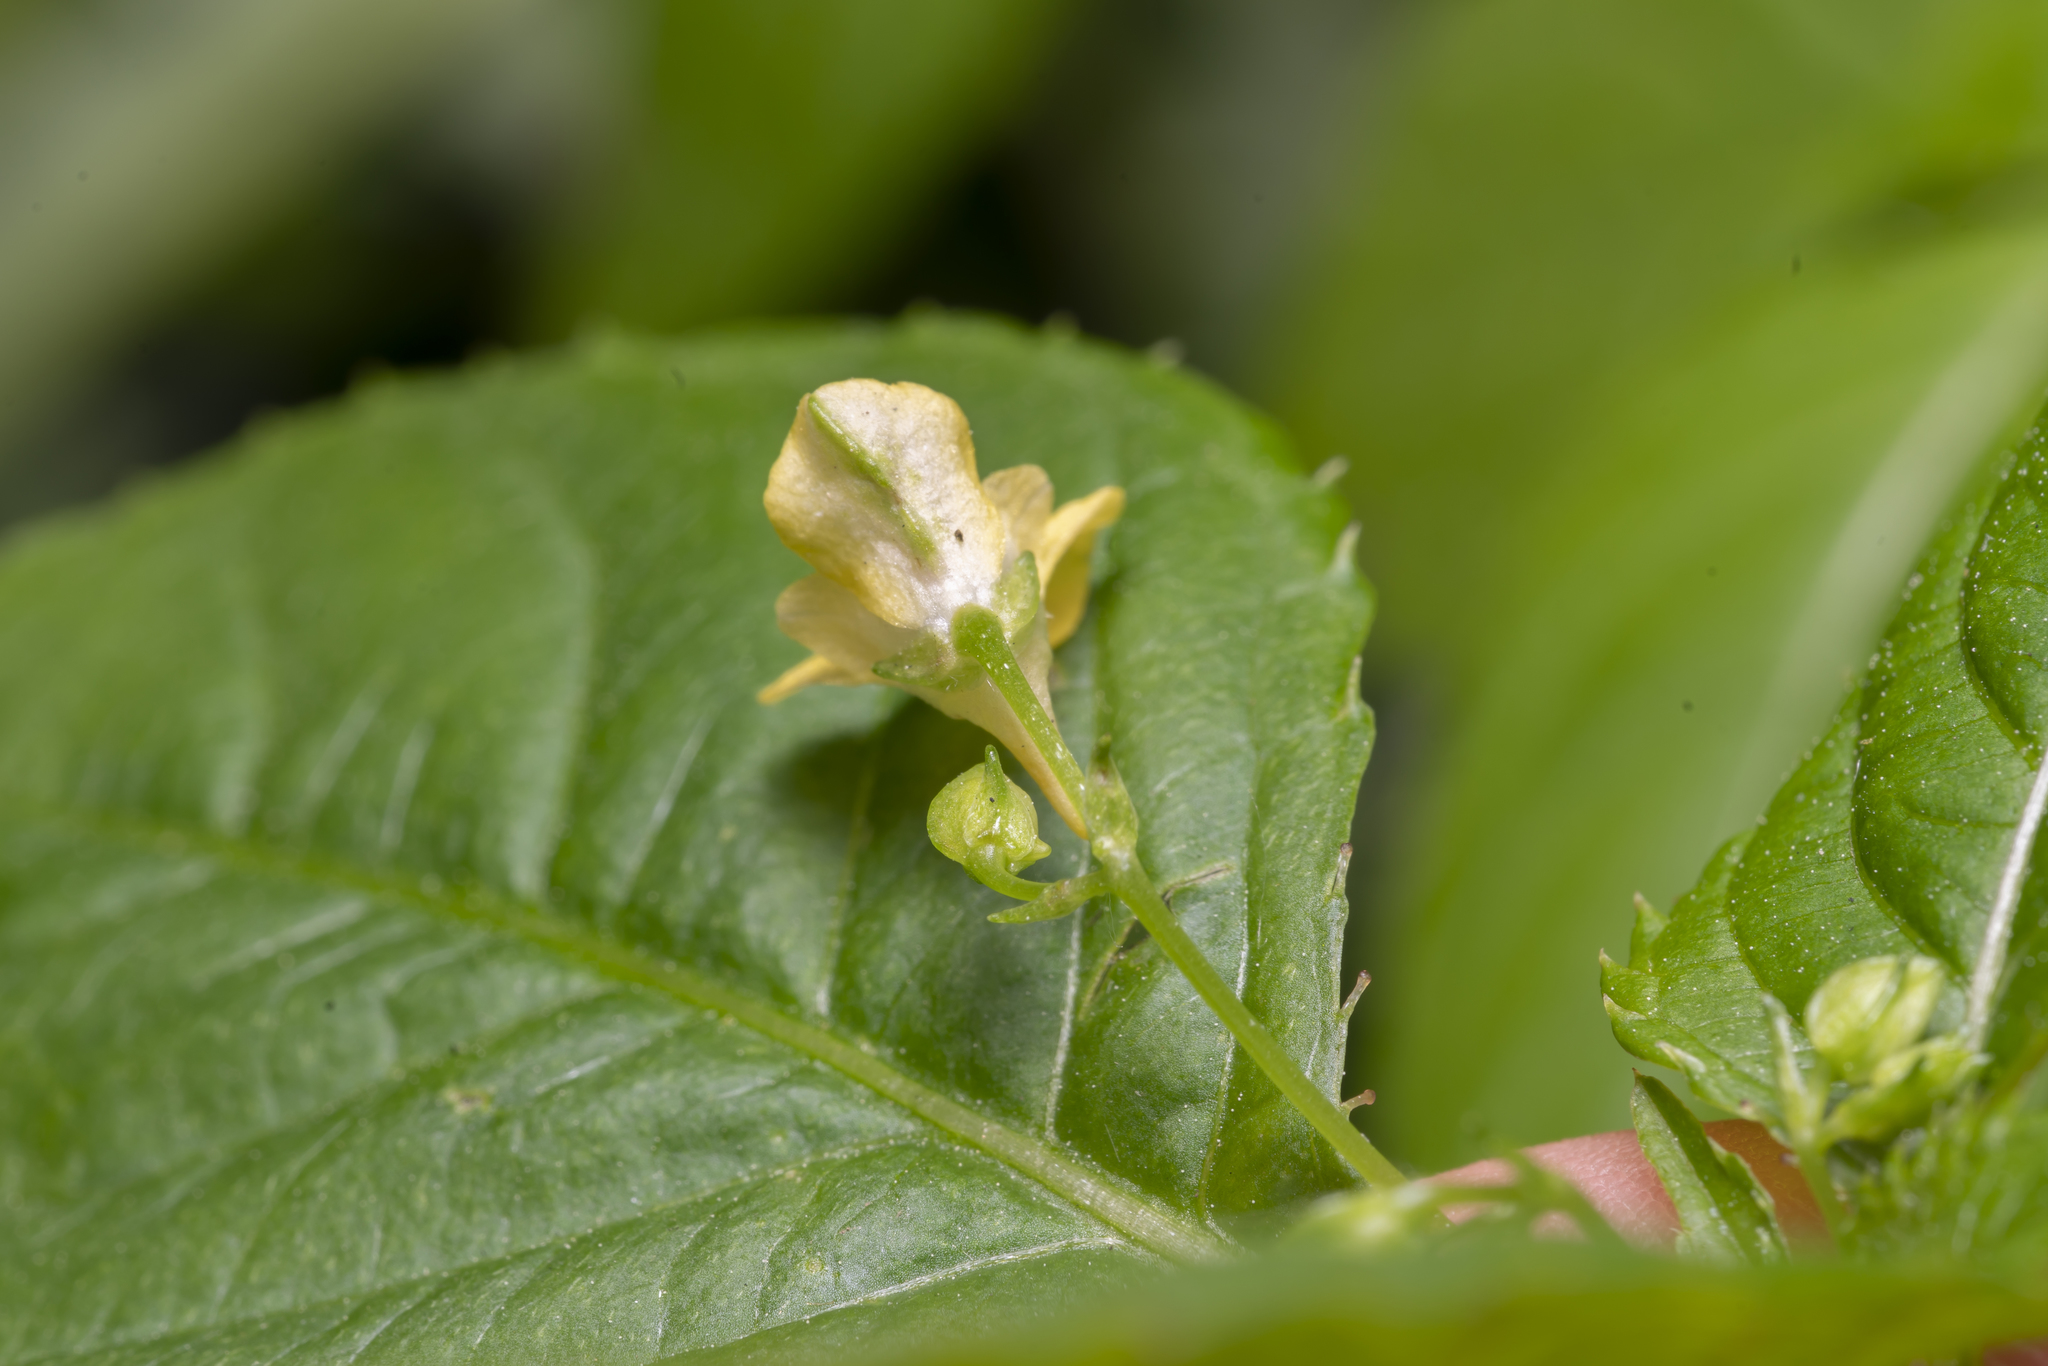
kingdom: Plantae
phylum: Tracheophyta
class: Magnoliopsida
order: Ericales
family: Balsaminaceae
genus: Impatiens
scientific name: Impatiens parviflora
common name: Small balsam
